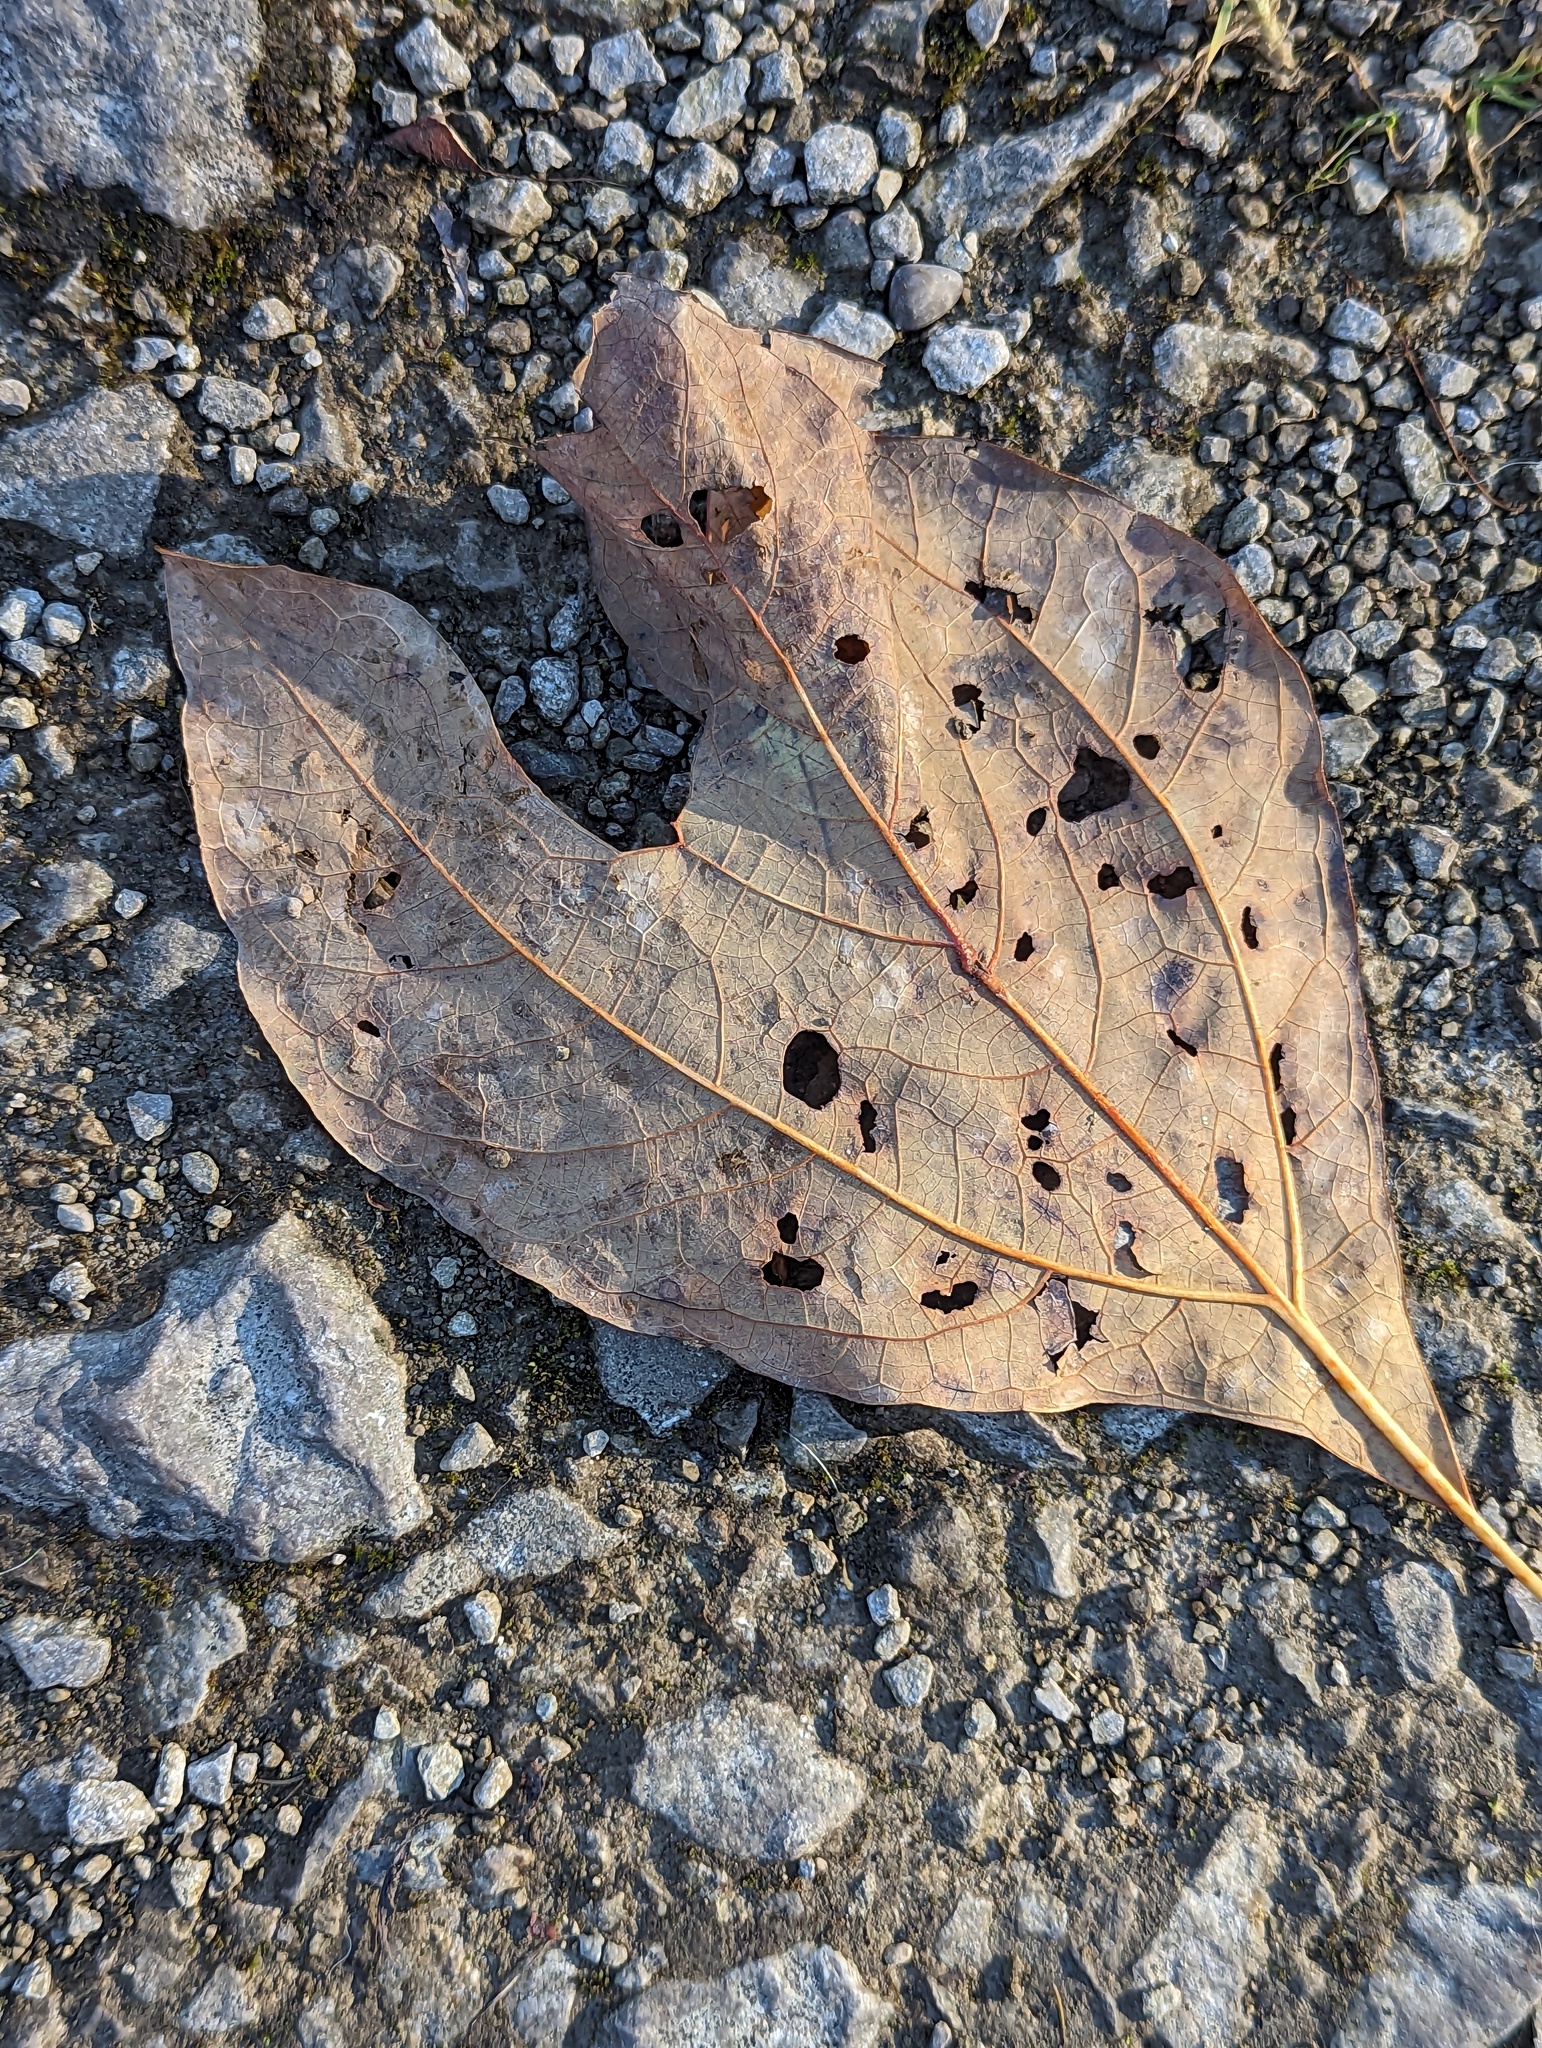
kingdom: Plantae
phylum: Tracheophyta
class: Magnoliopsida
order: Laurales
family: Lauraceae
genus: Sassafras
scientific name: Sassafras albidum
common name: Sassafras
